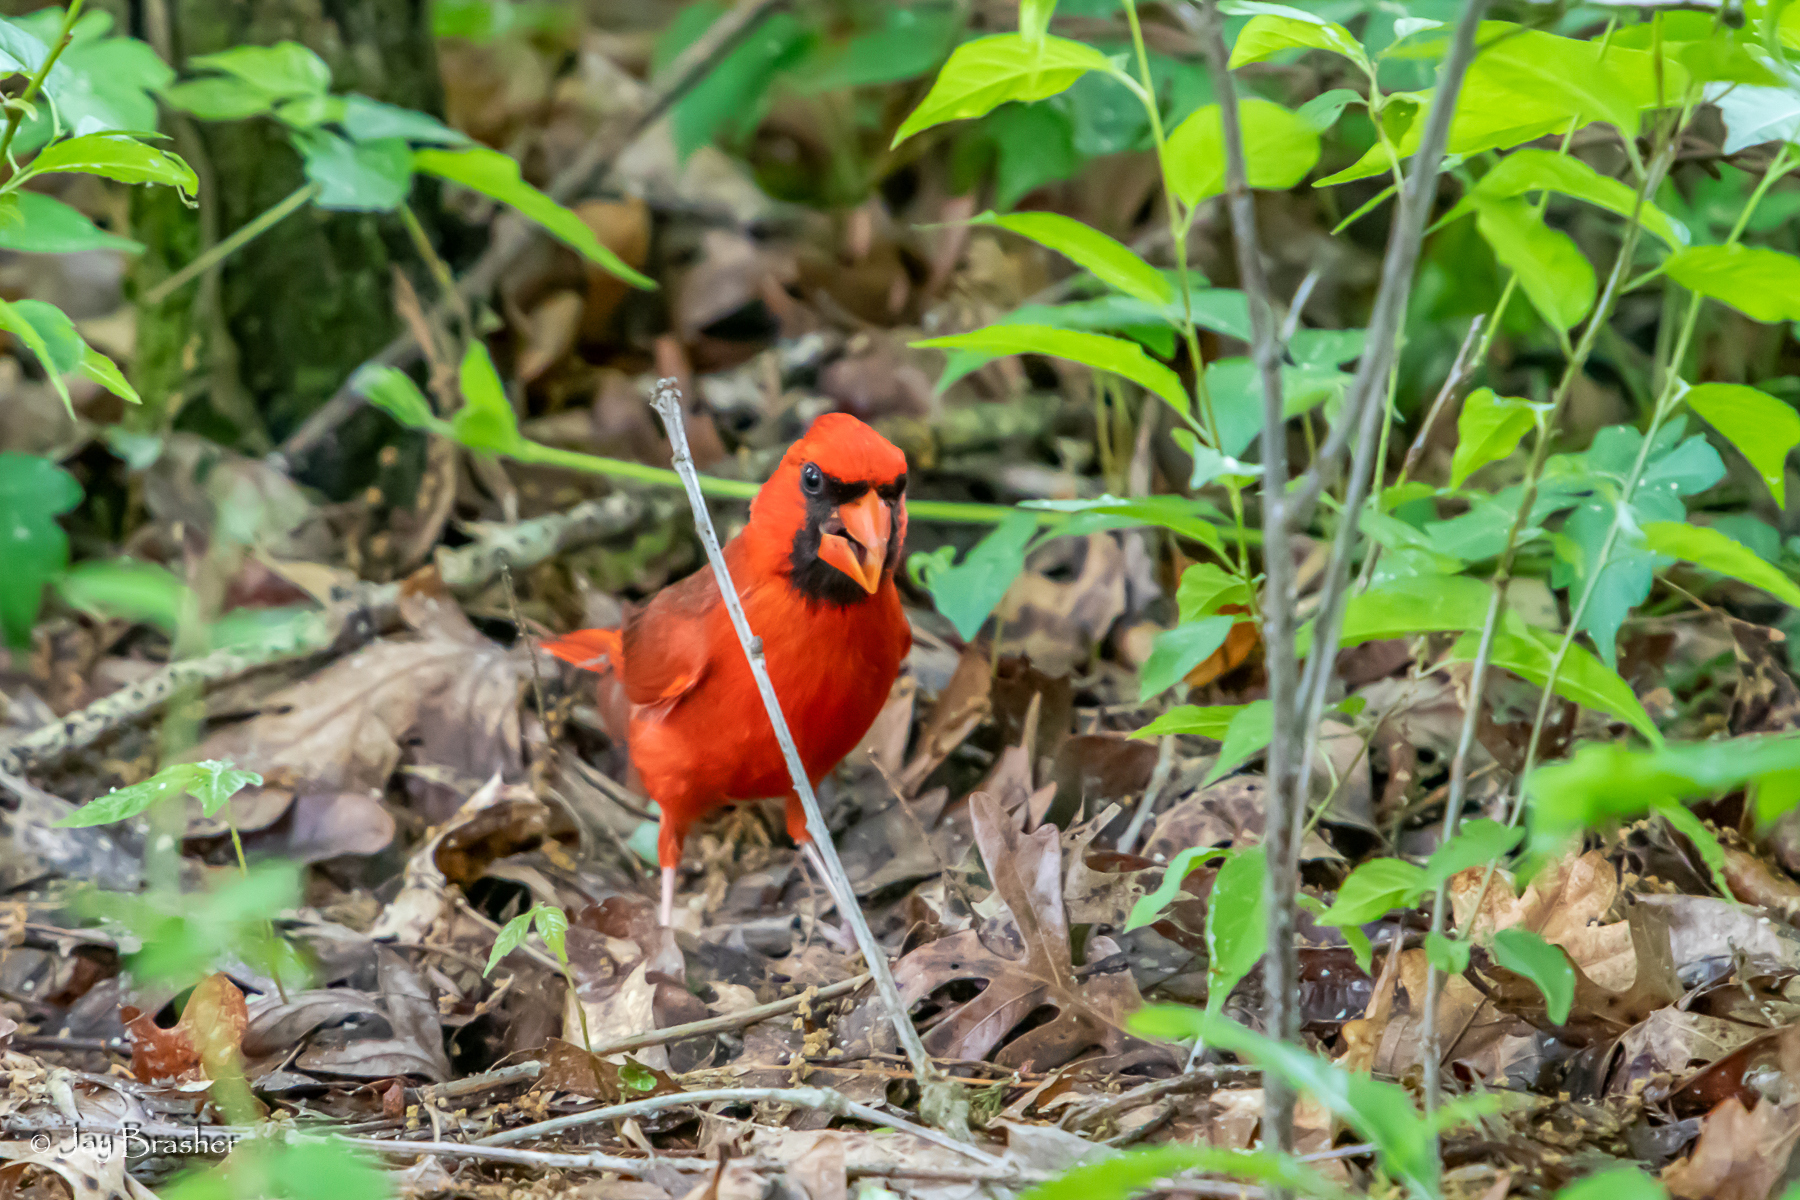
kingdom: Animalia
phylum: Chordata
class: Aves
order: Passeriformes
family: Cardinalidae
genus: Cardinalis
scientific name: Cardinalis cardinalis
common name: Northern cardinal
